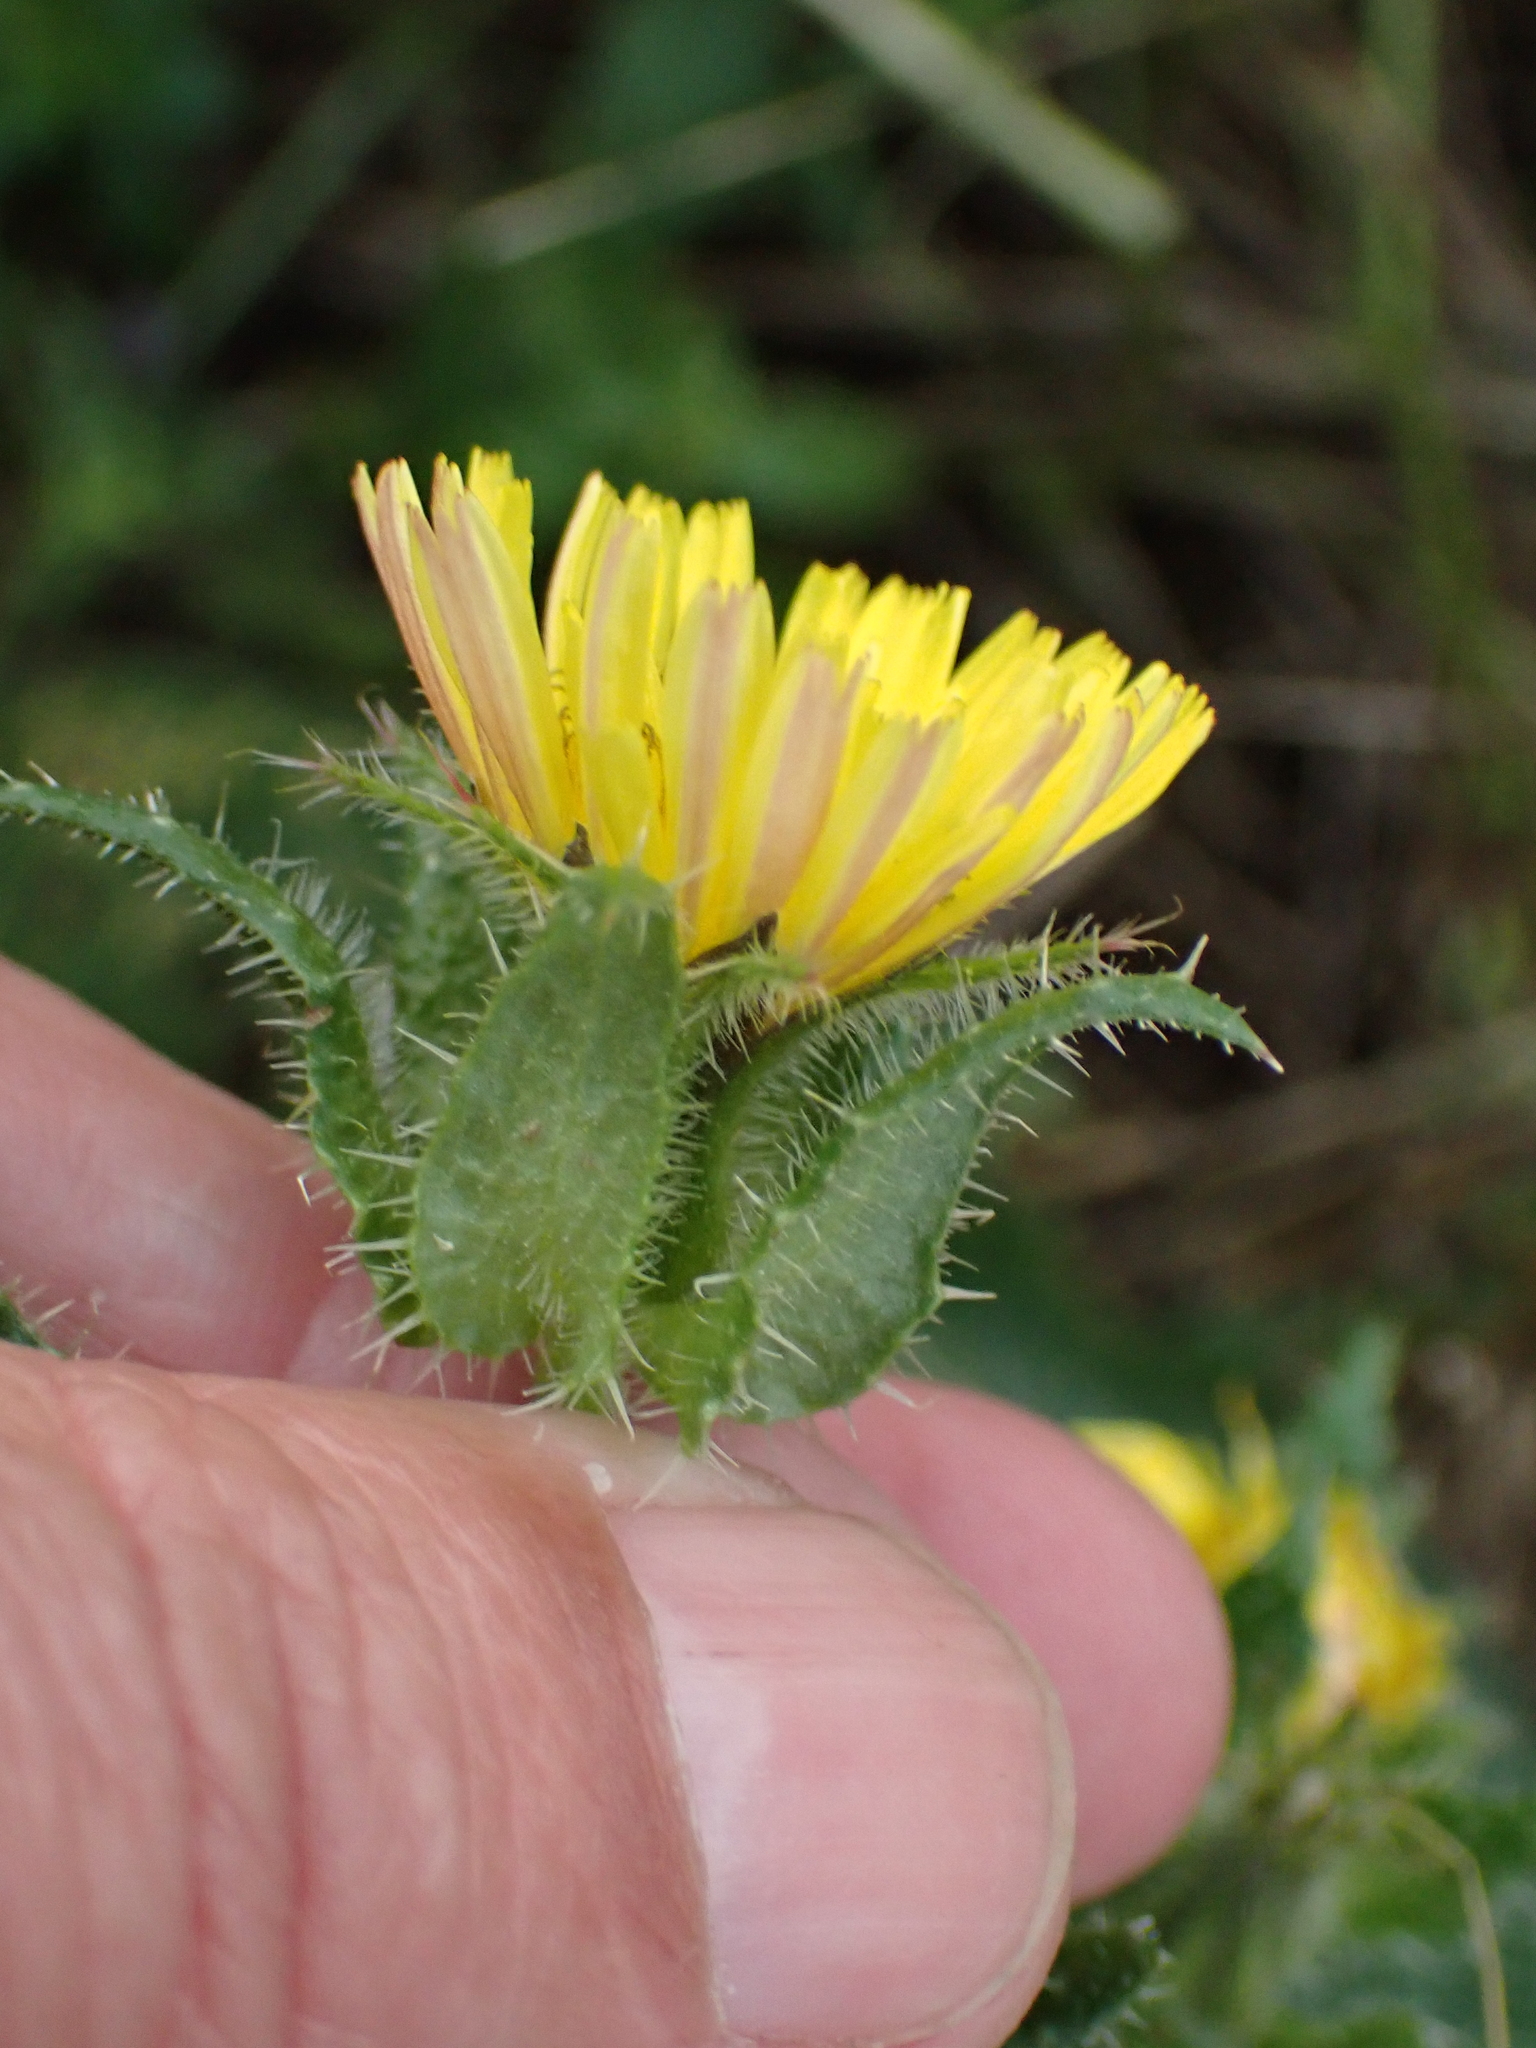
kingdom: Plantae
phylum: Tracheophyta
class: Magnoliopsida
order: Asterales
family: Asteraceae
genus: Helminthotheca
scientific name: Helminthotheca echioides
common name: Ox-tongue
